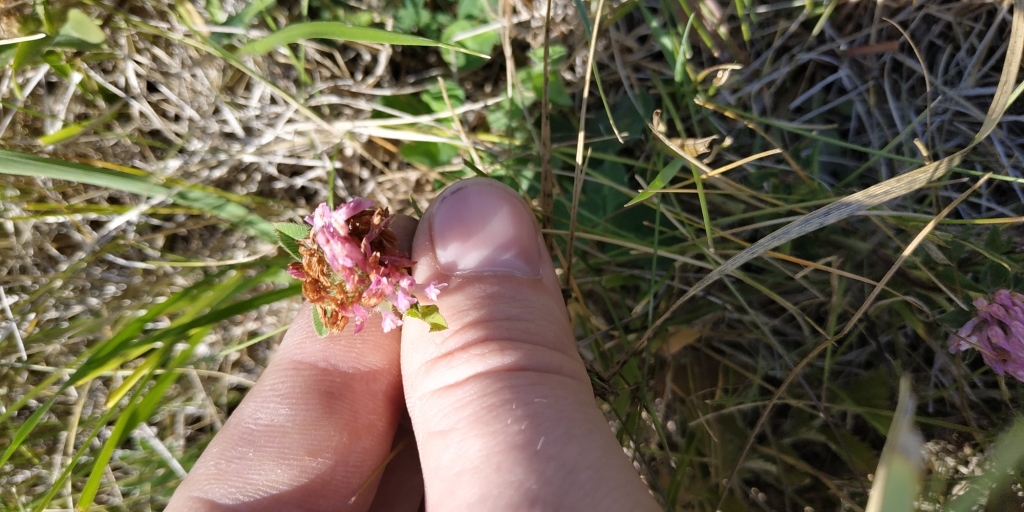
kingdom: Plantae
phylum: Tracheophyta
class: Magnoliopsida
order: Fabales
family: Fabaceae
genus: Trifolium
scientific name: Trifolium pratense
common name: Red clover
